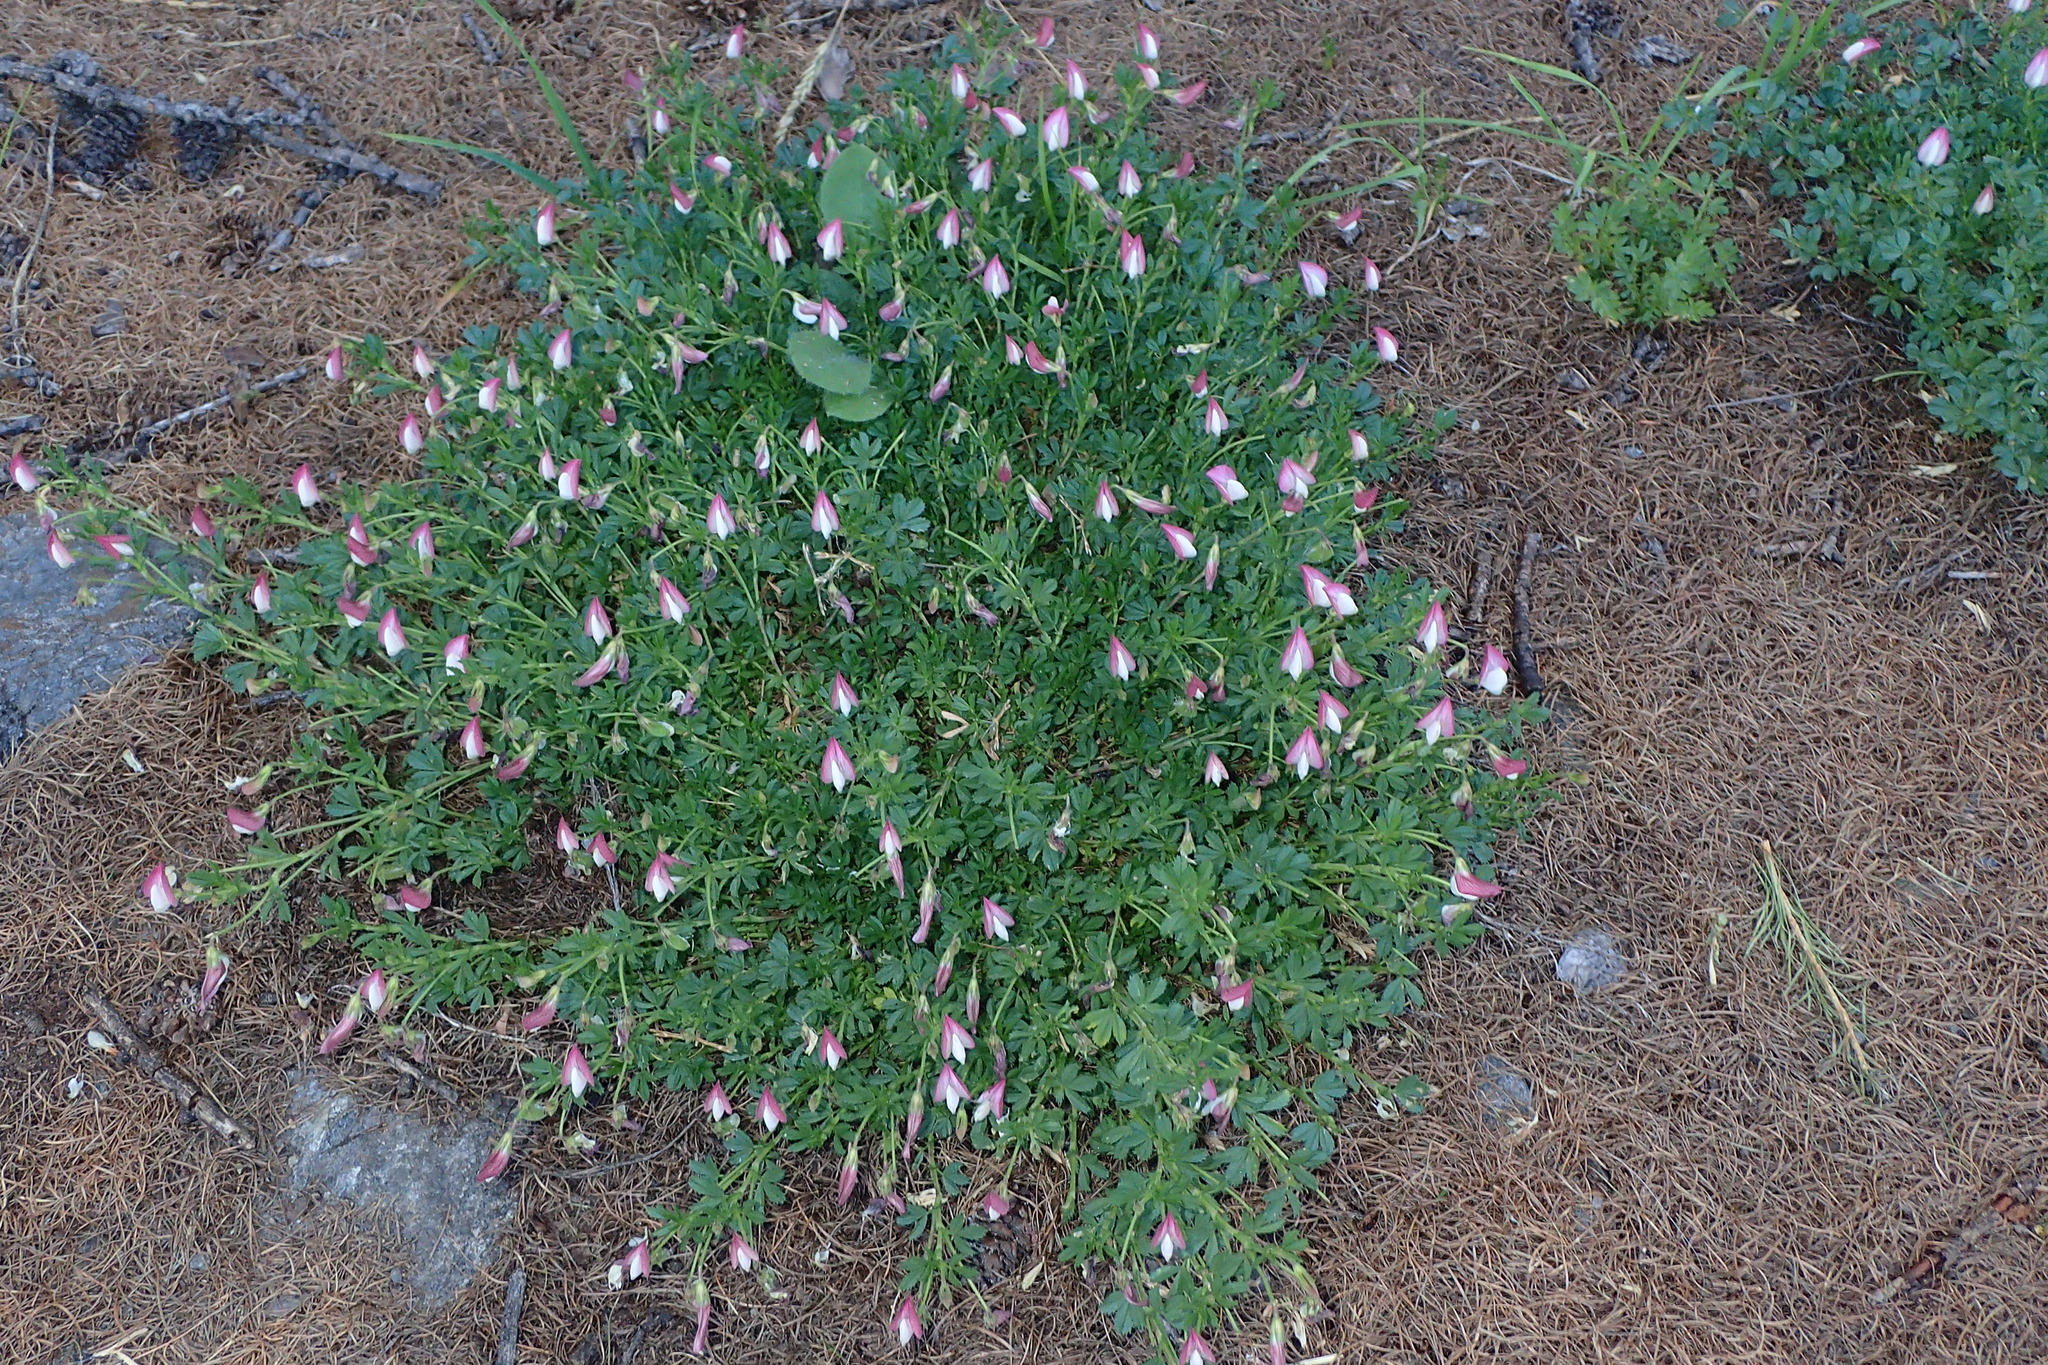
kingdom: Plantae
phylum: Tracheophyta
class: Magnoliopsida
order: Fabales
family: Fabaceae
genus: Ononis
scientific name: Ononis cristata
